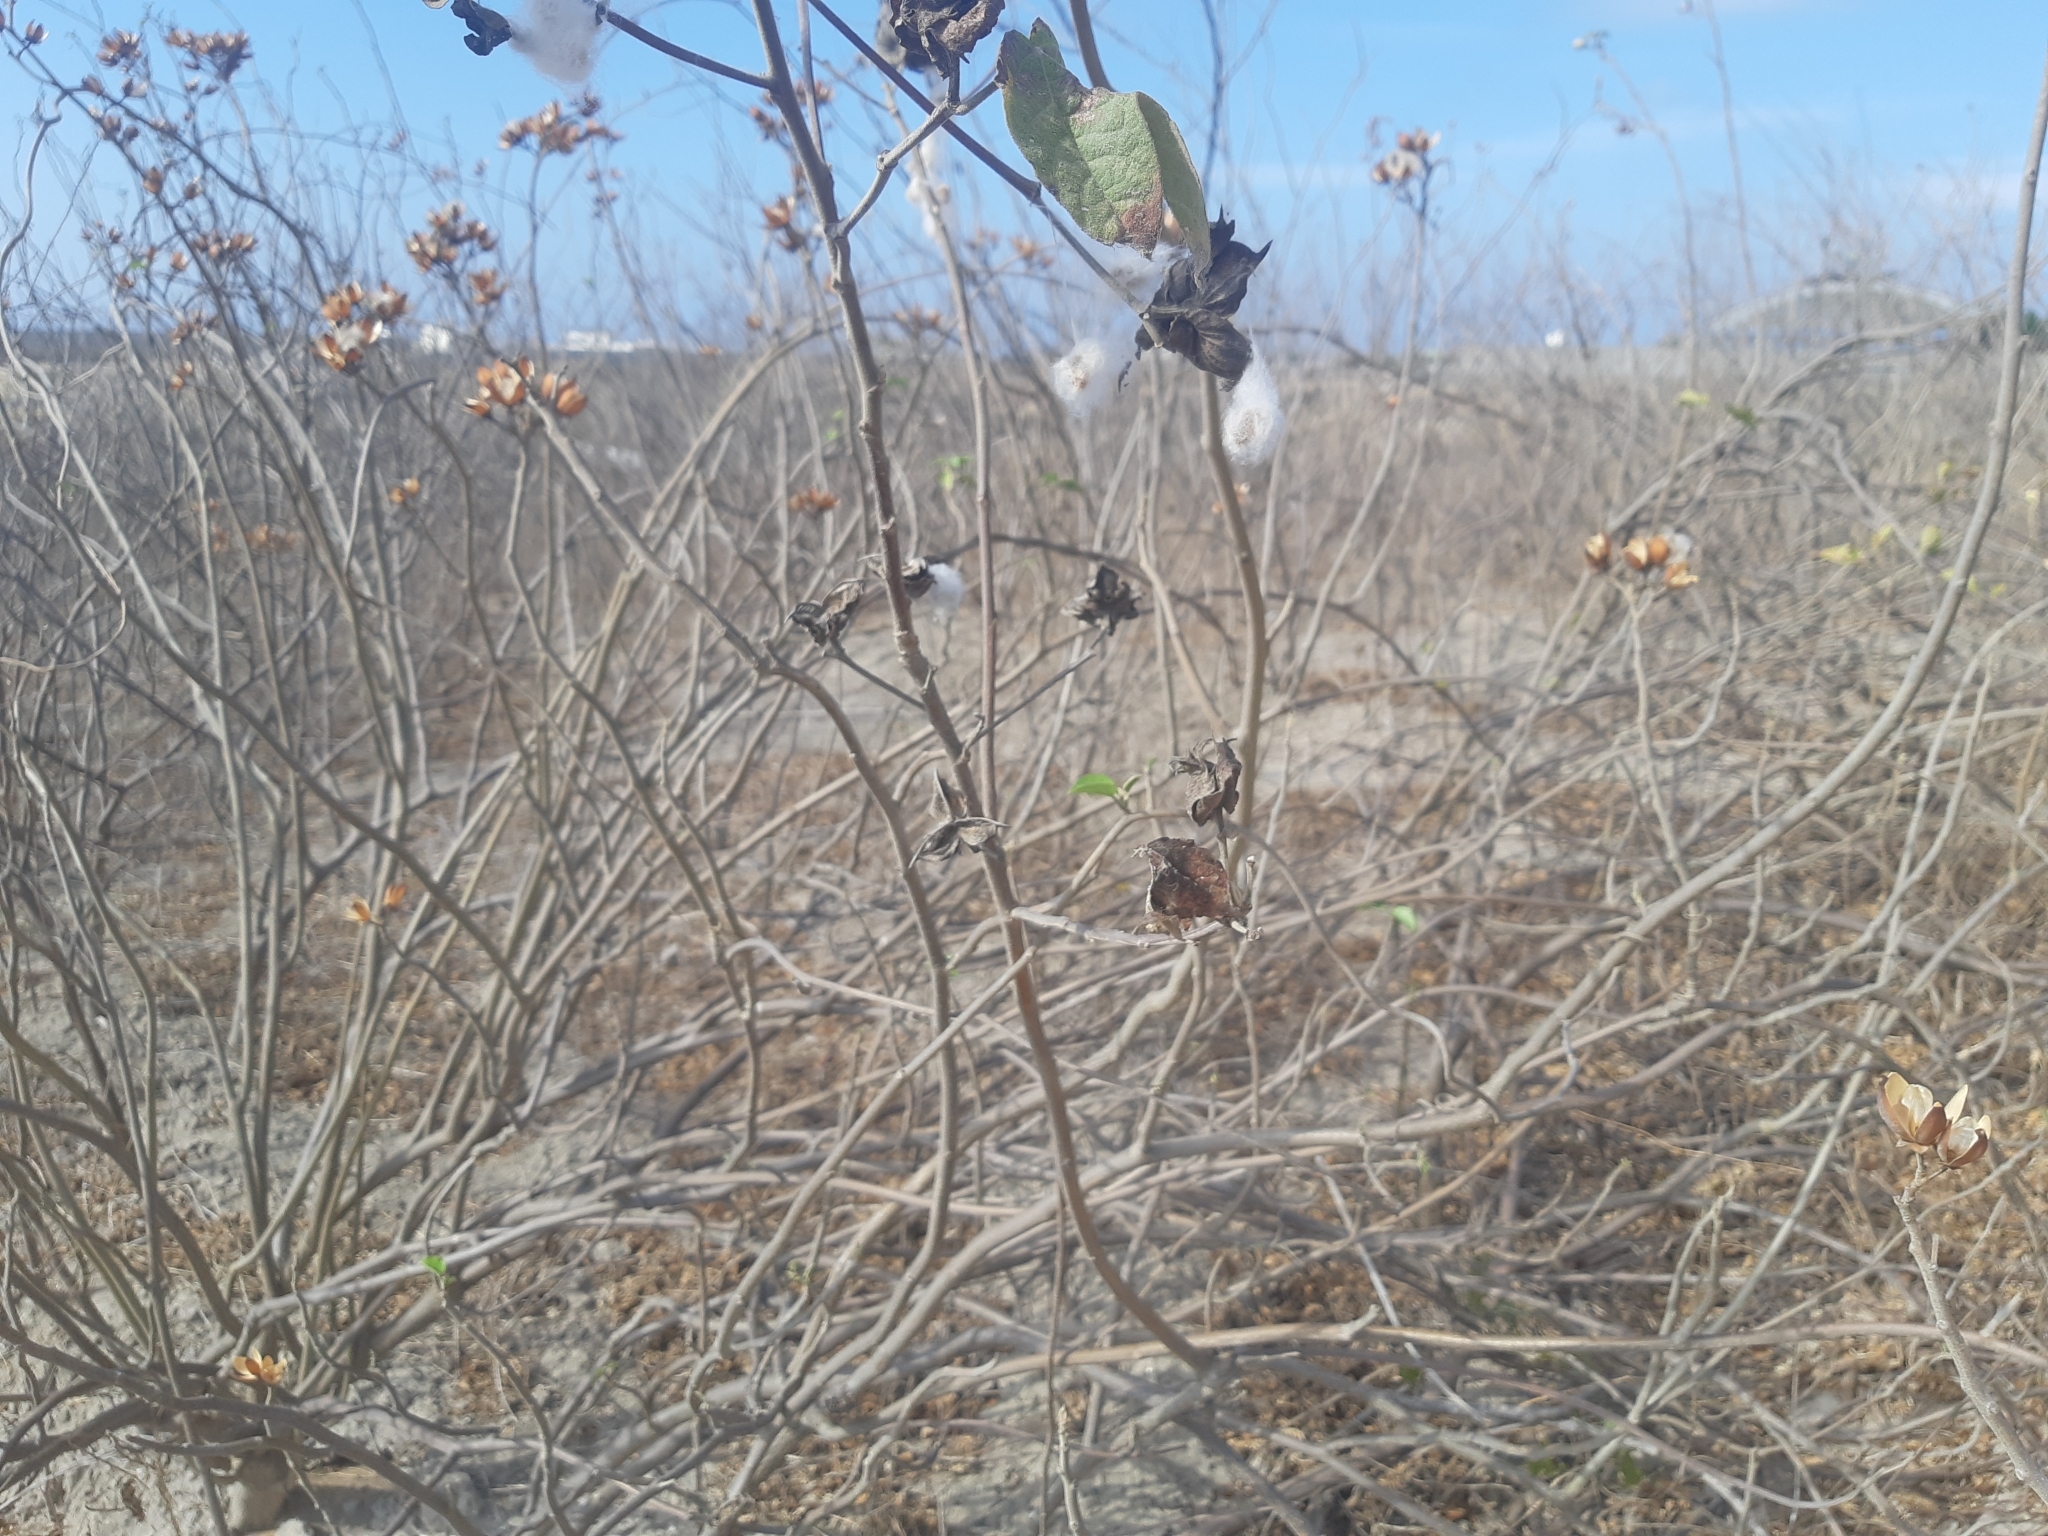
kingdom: Plantae
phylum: Tracheophyta
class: Magnoliopsida
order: Malvales
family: Malvaceae
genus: Gossypium
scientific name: Gossypium barbadense
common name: Creole cotton
